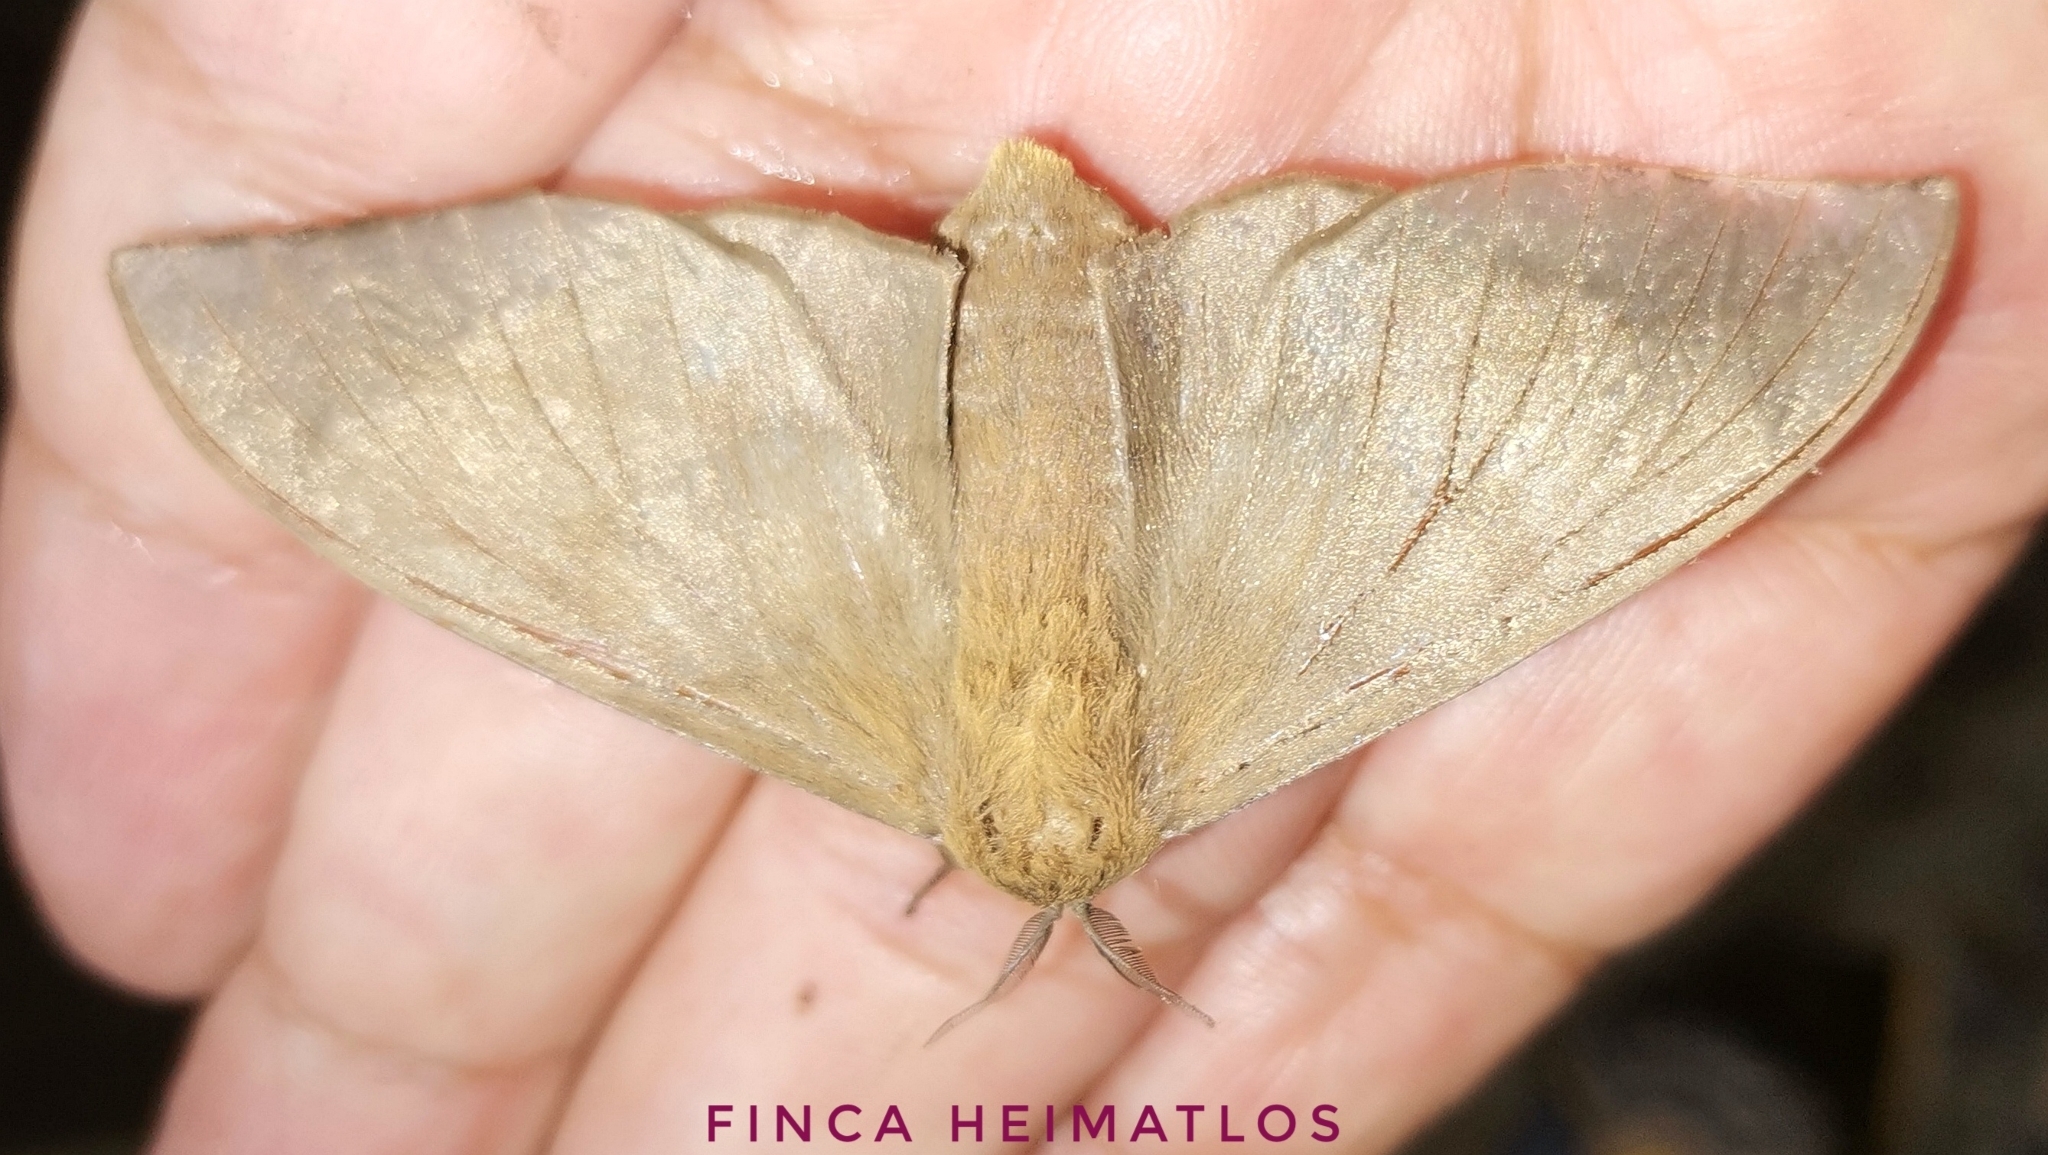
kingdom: Animalia
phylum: Arthropoda
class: Insecta
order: Lepidoptera
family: Mimallonidae
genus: Psychocampa
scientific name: Psychocampa concolor
